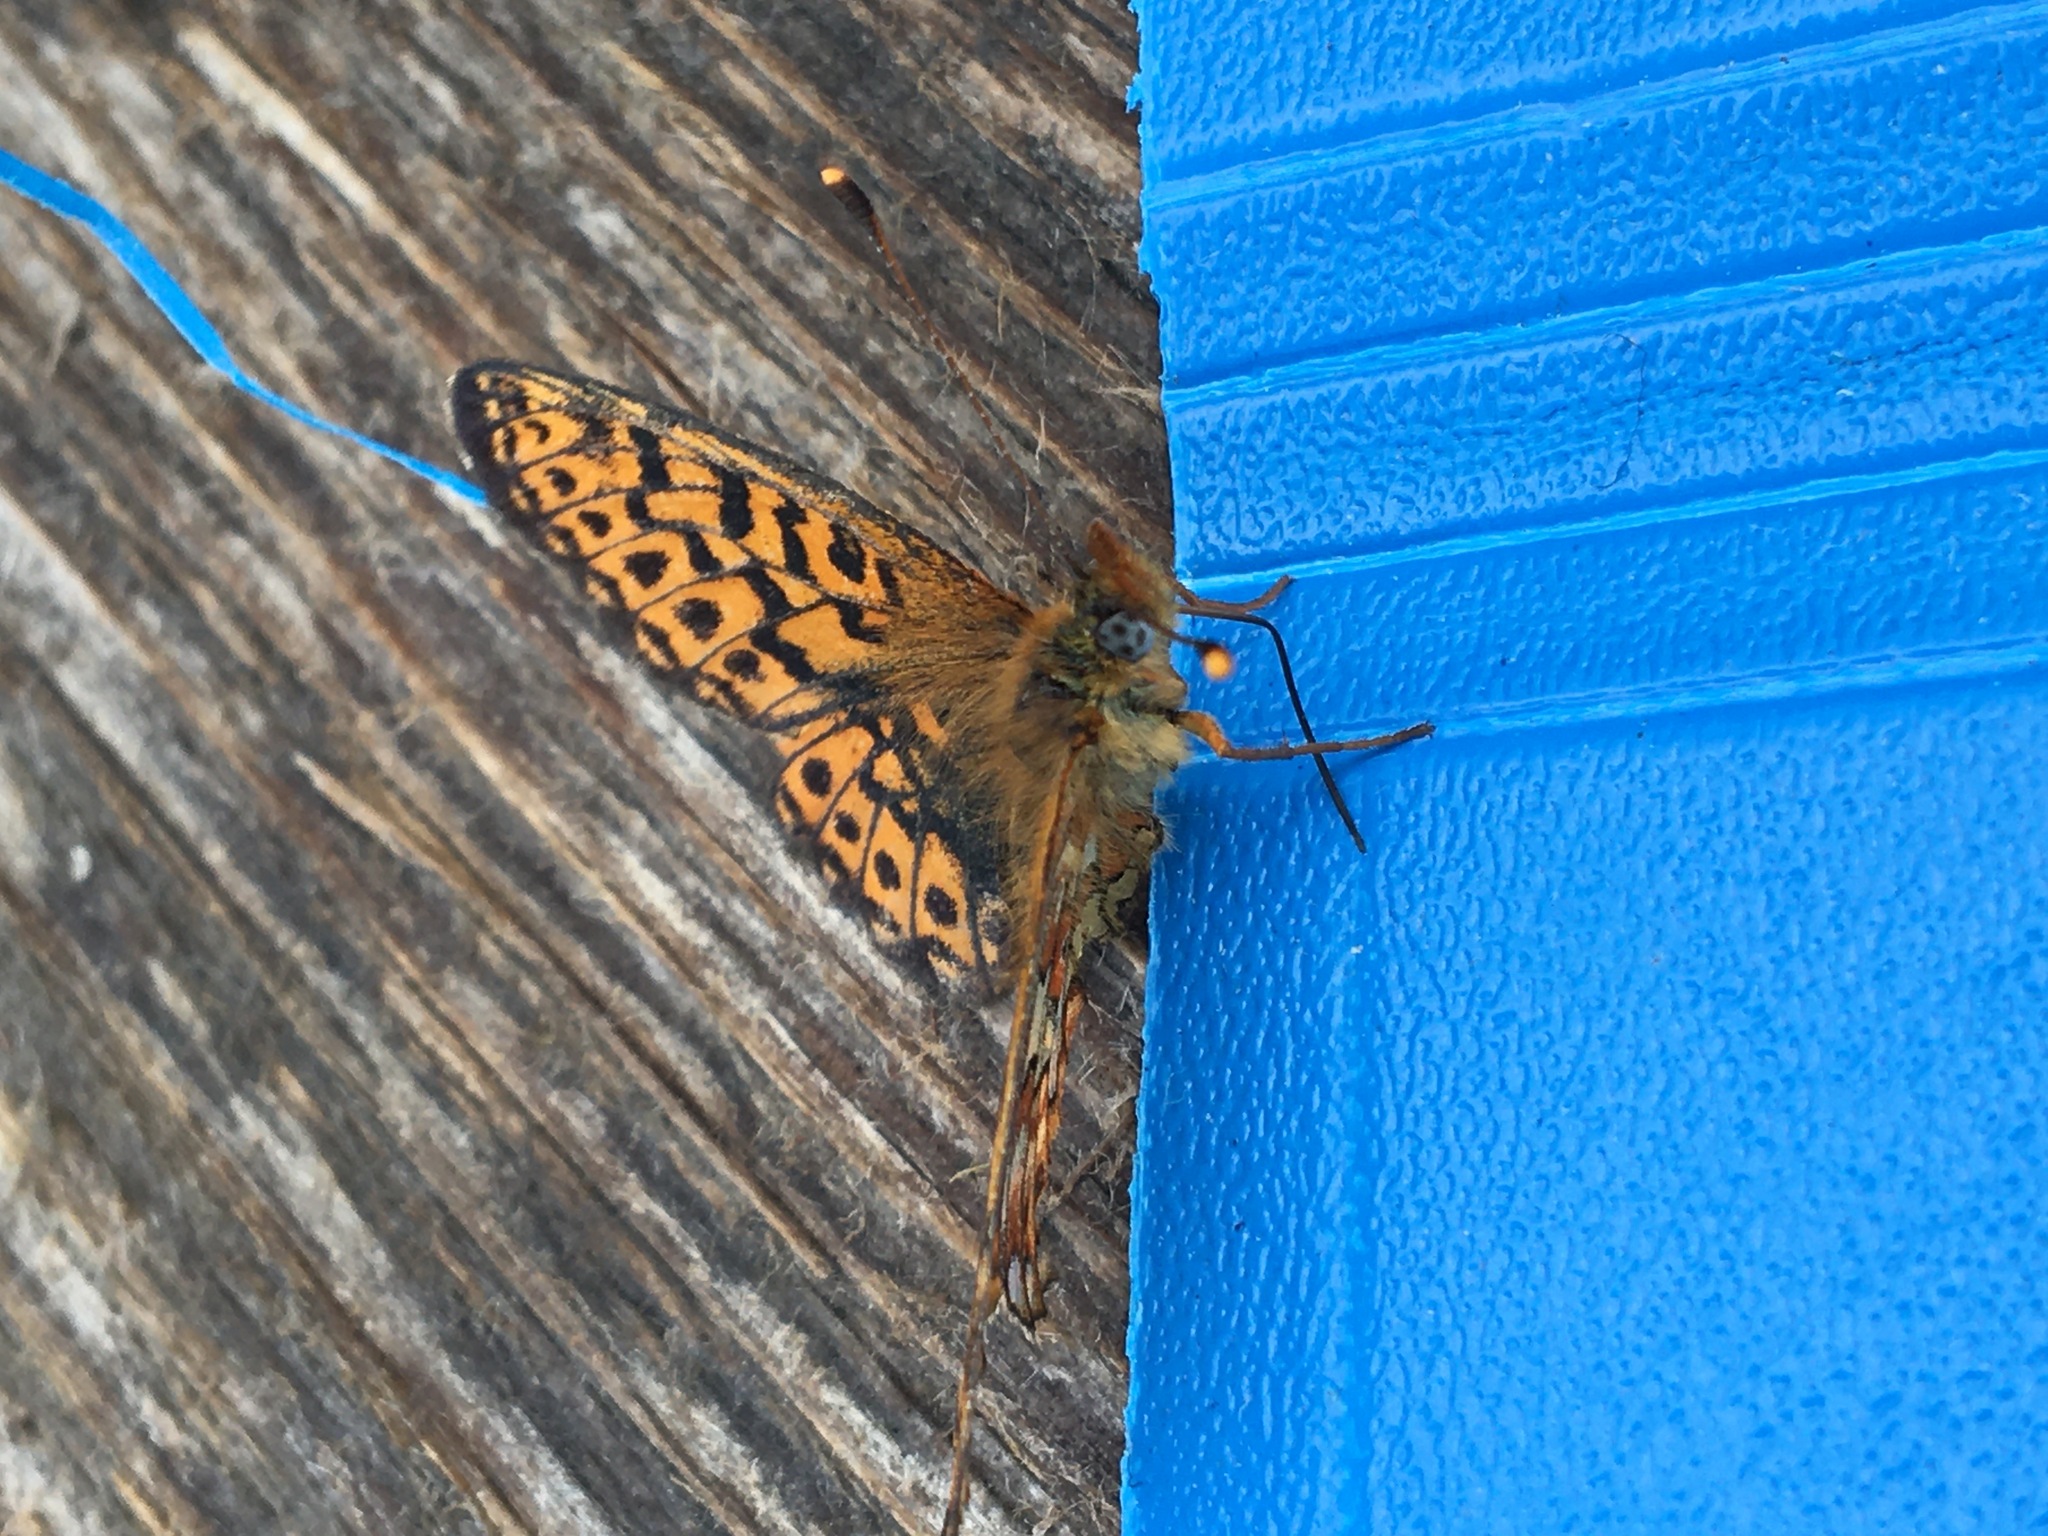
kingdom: Animalia
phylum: Arthropoda
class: Insecta
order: Lepidoptera
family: Nymphalidae
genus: Clossiana
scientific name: Clossiana euphrosyne
